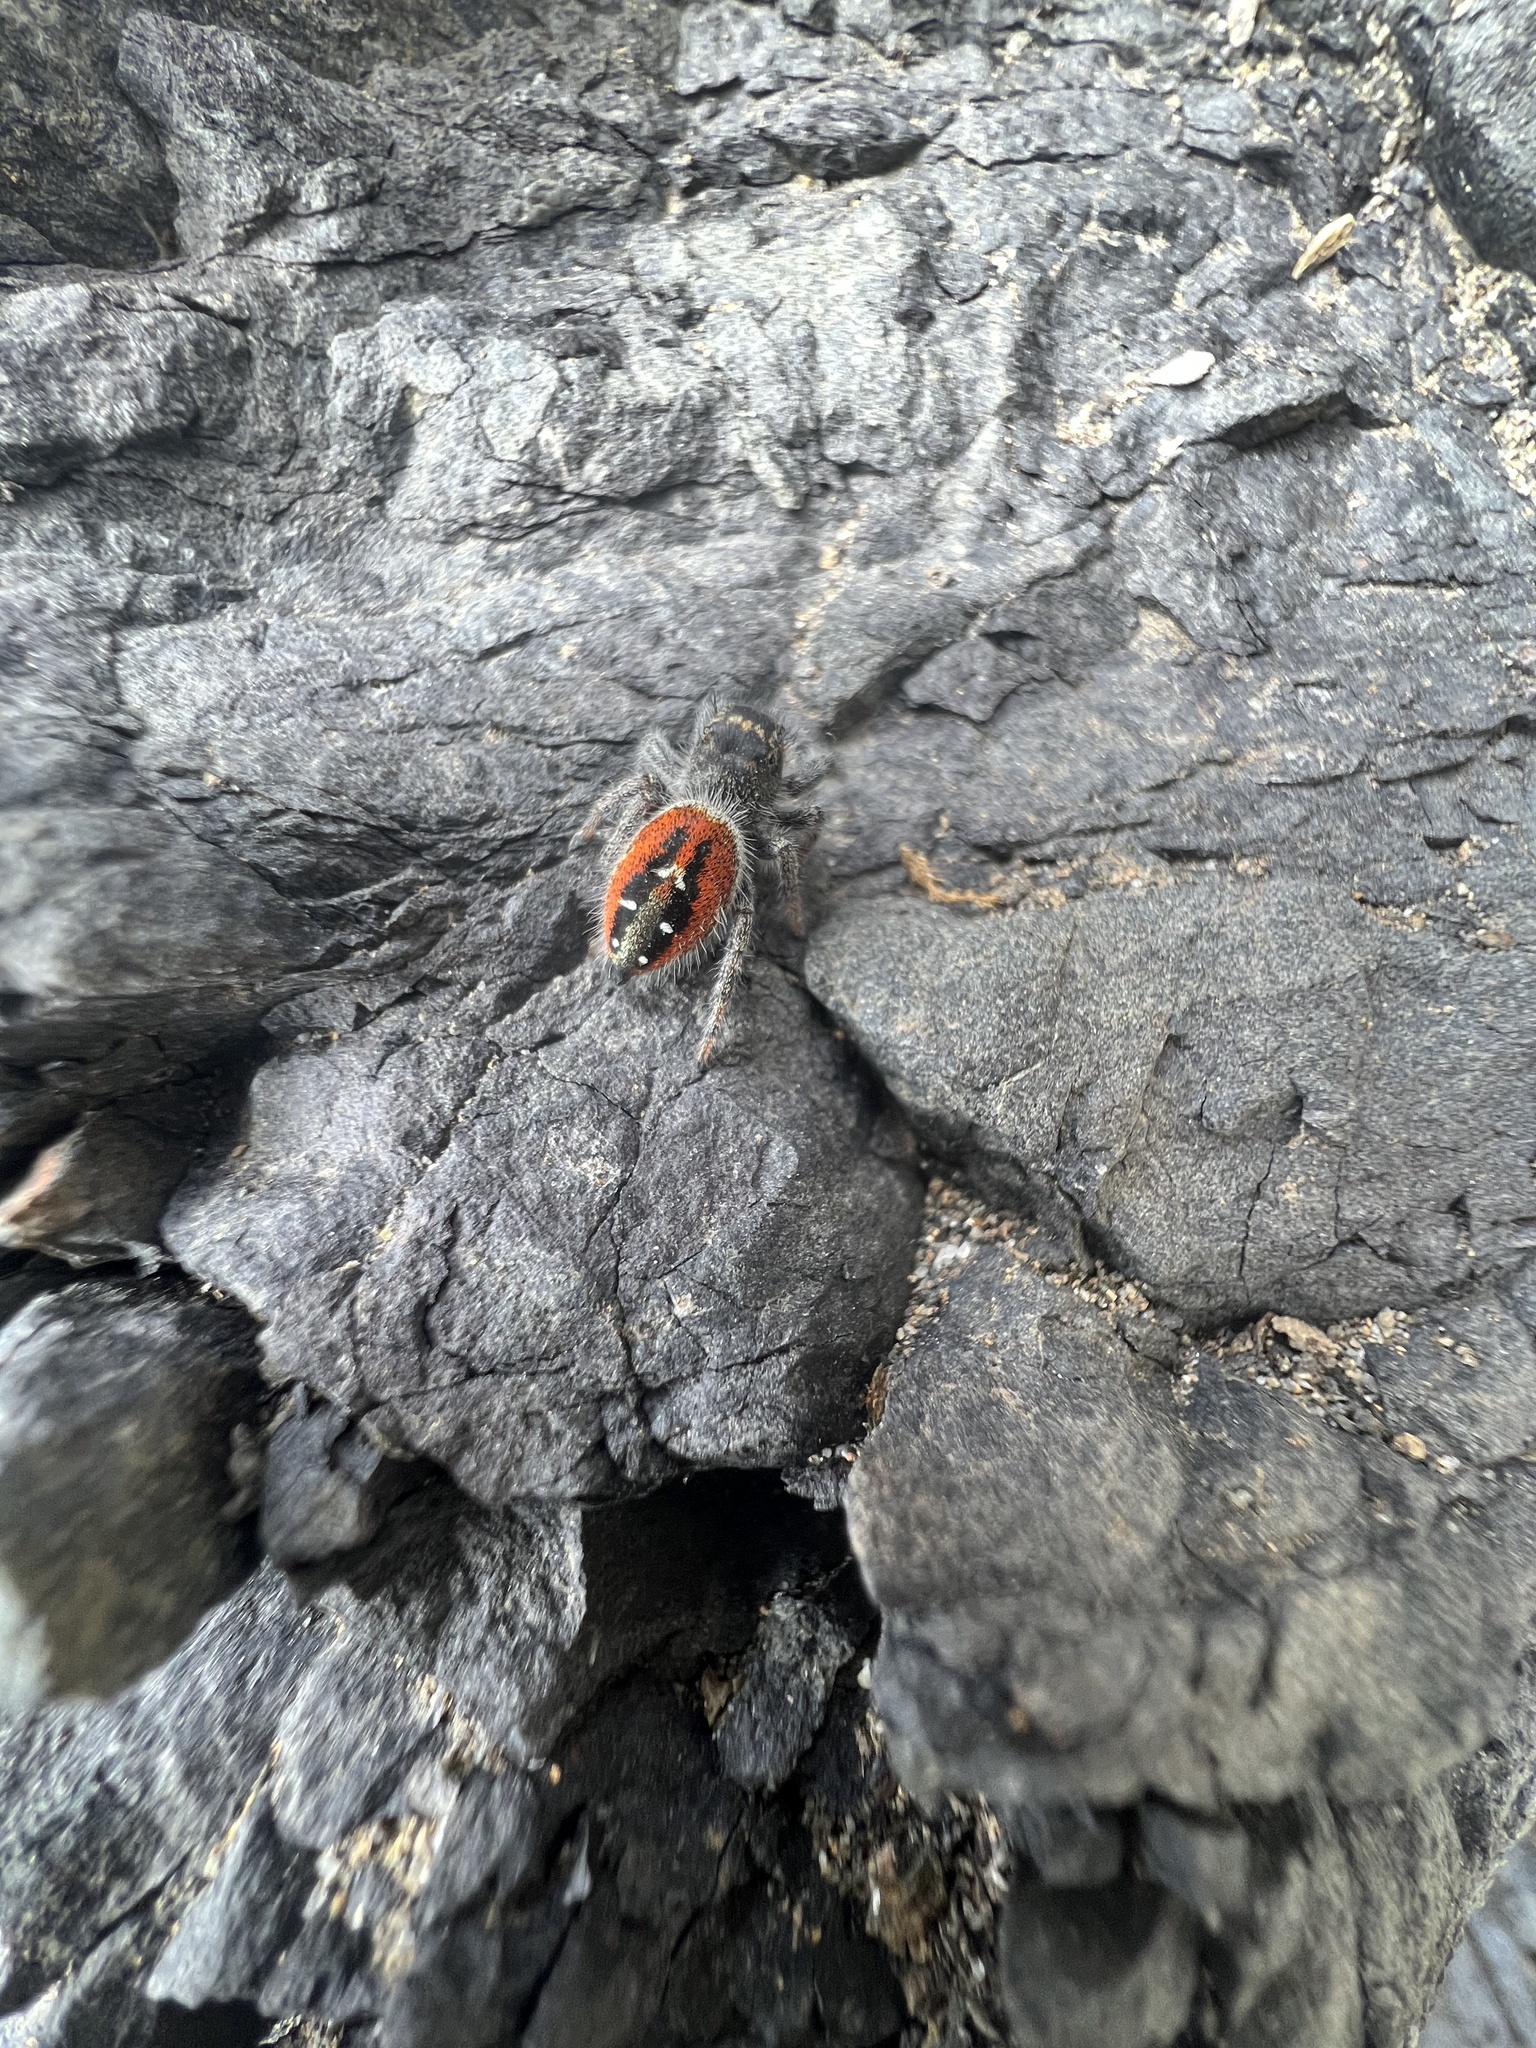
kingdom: Animalia
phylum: Arthropoda
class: Arachnida
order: Araneae
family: Salticidae
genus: Phidippus
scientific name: Phidippus johnsoni
